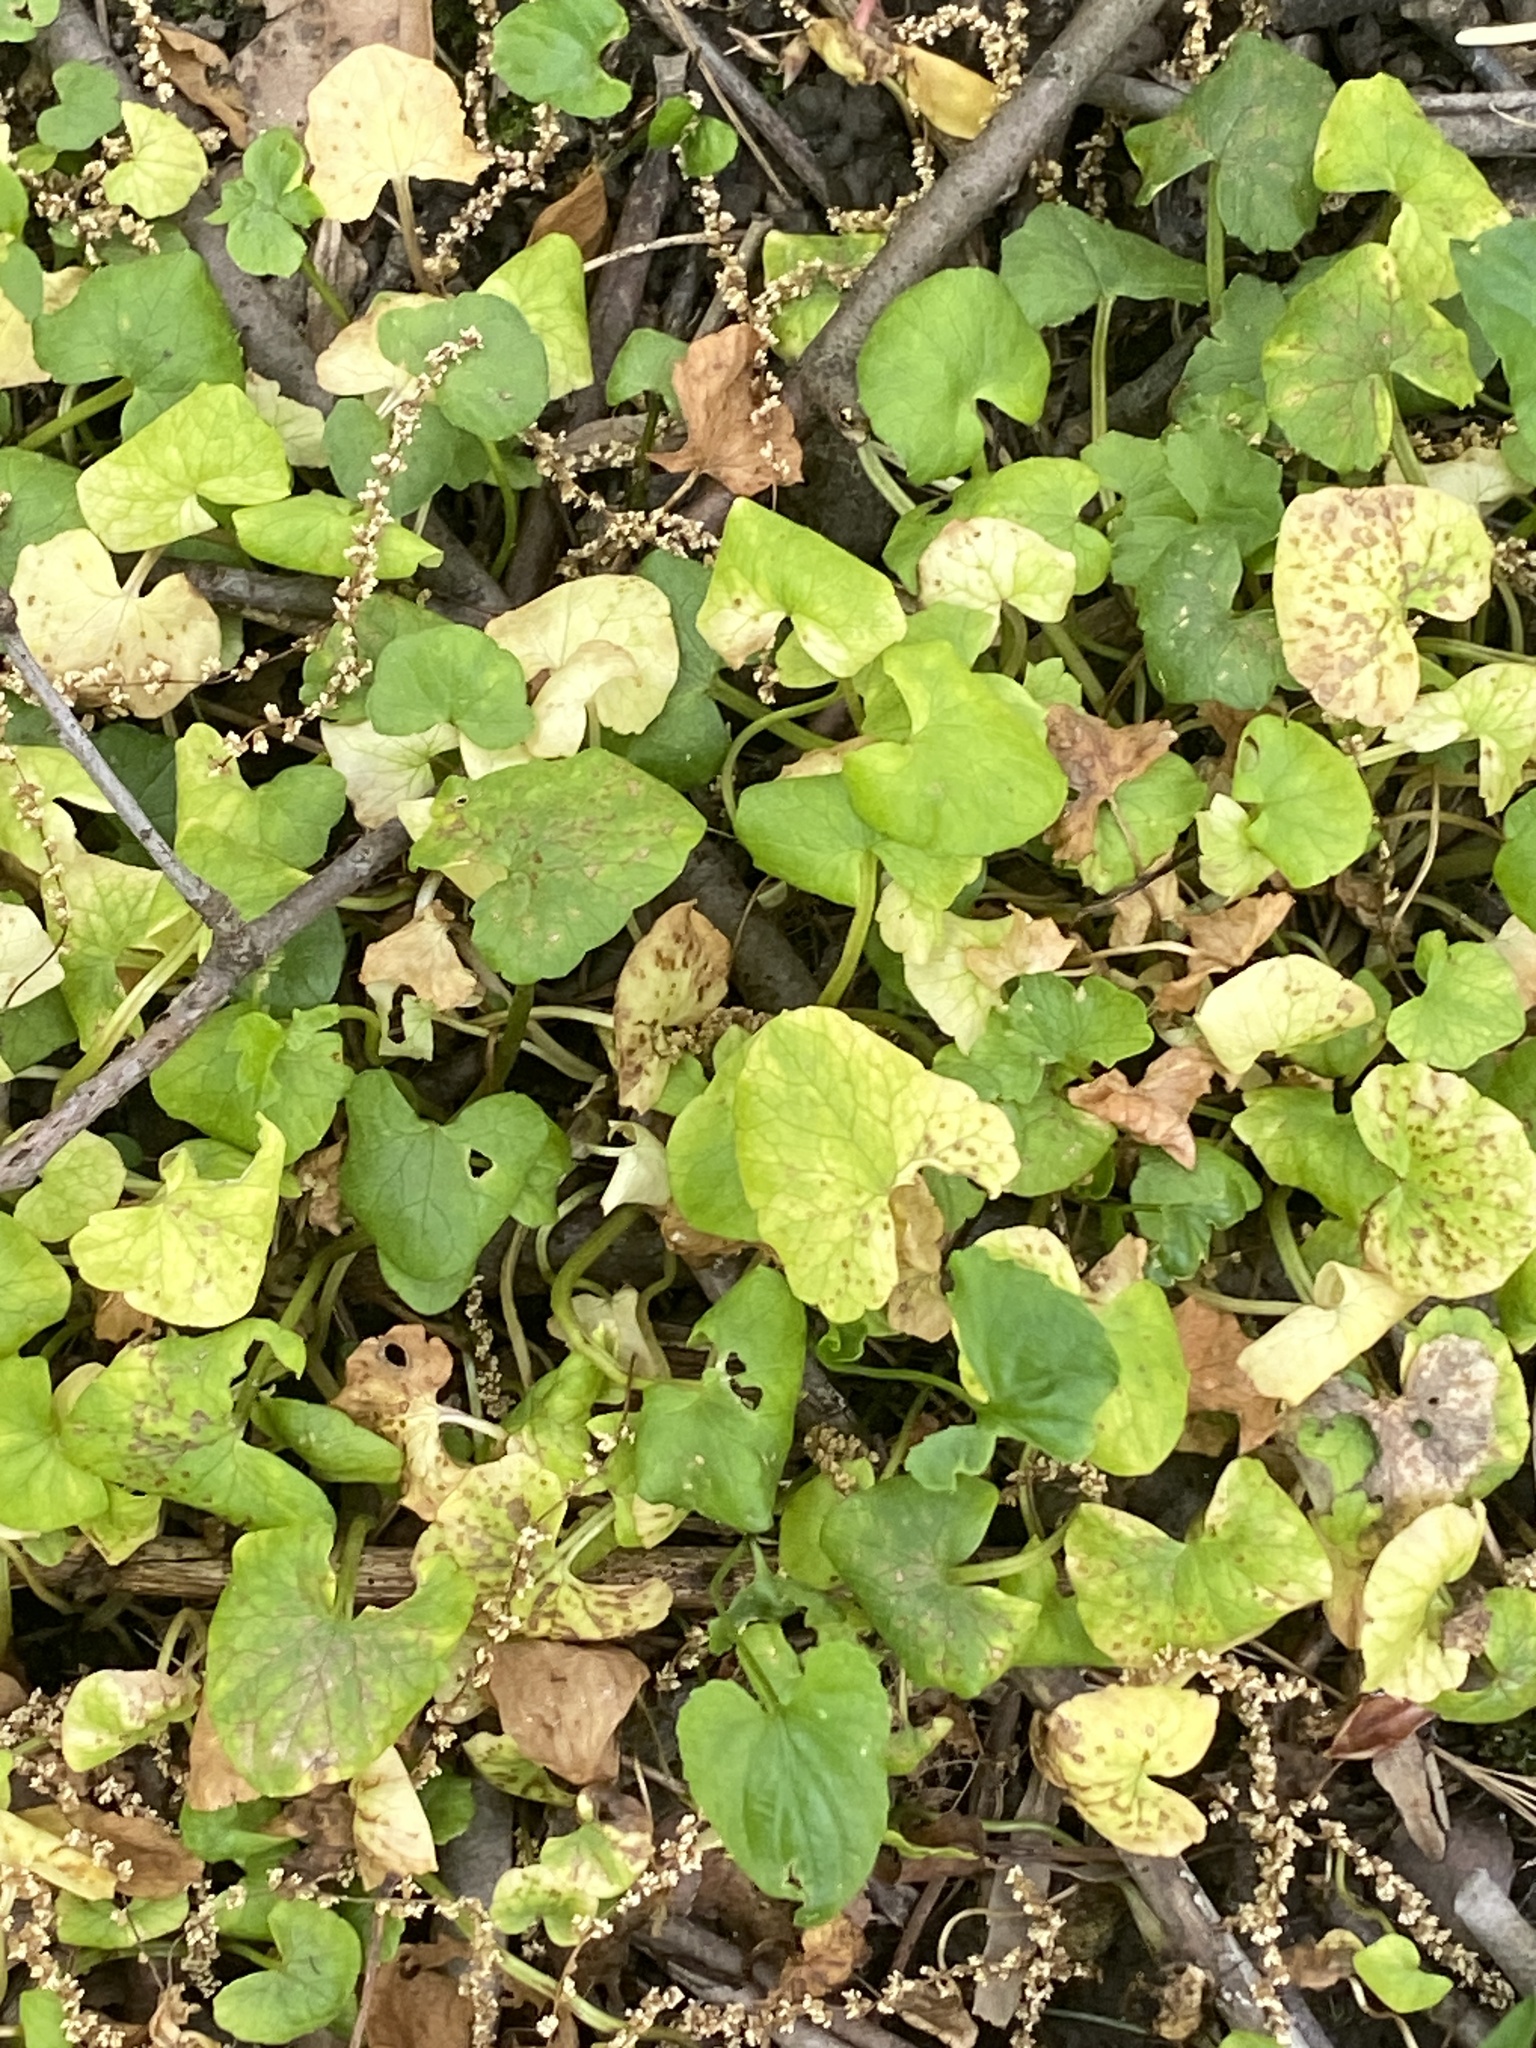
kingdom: Plantae
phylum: Tracheophyta
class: Magnoliopsida
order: Ranunculales
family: Ranunculaceae
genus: Ficaria
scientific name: Ficaria verna
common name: Lesser celandine
